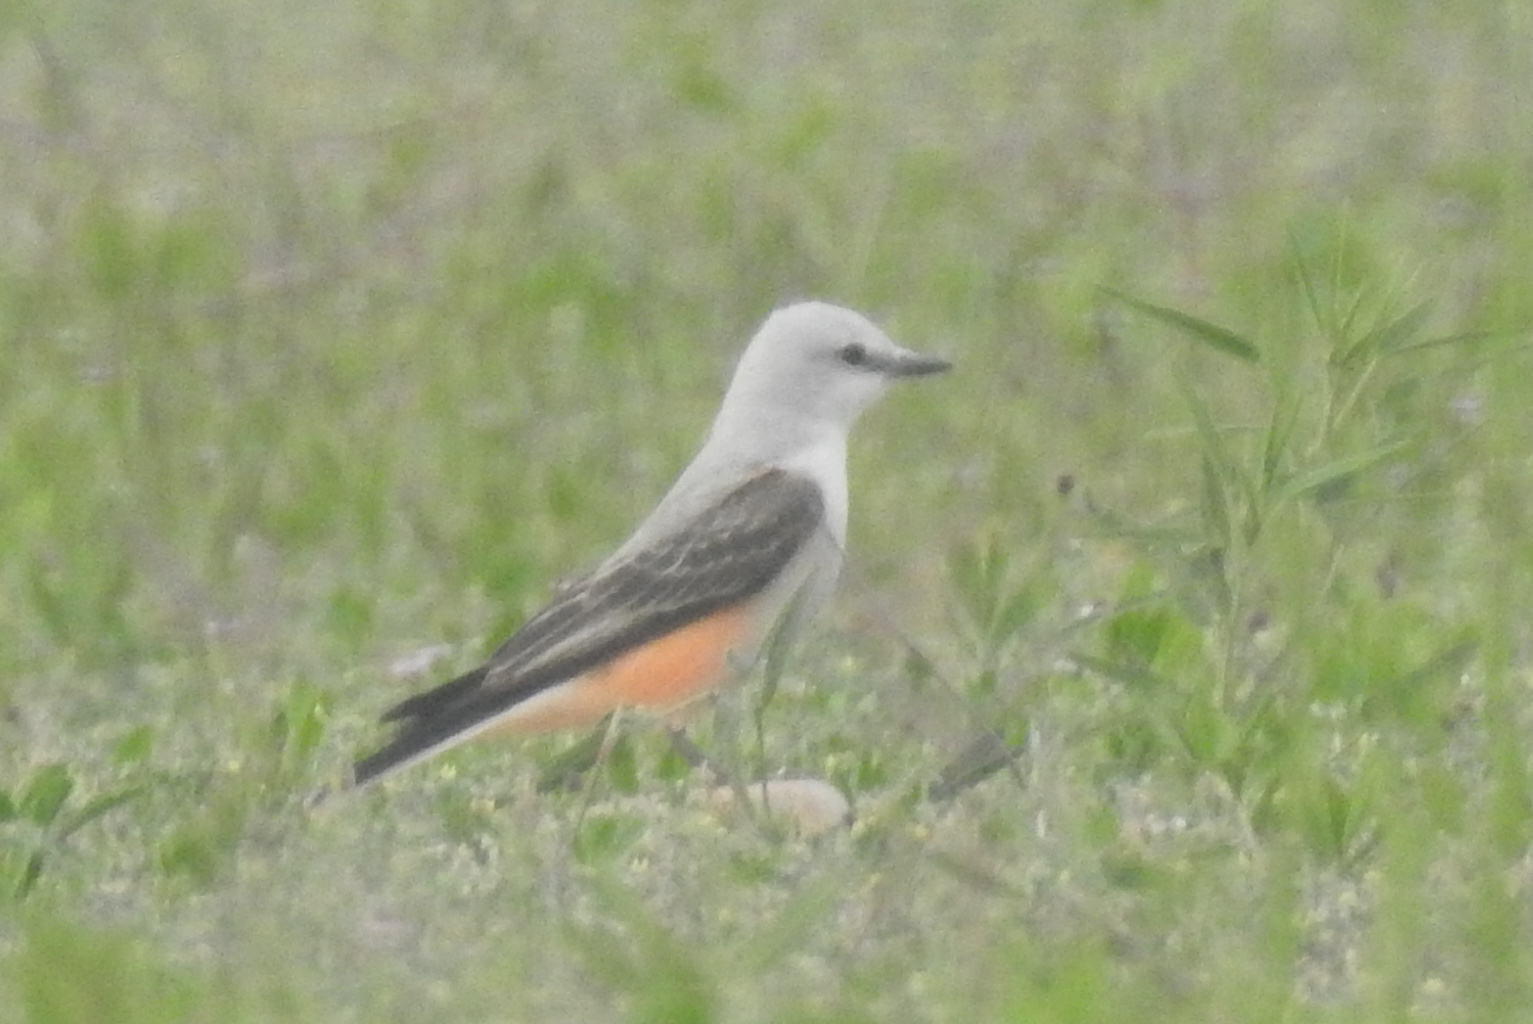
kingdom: Animalia
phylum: Chordata
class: Aves
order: Passeriformes
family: Tyrannidae
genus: Tyrannus
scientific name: Tyrannus forficatus
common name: Scissor-tailed flycatcher
